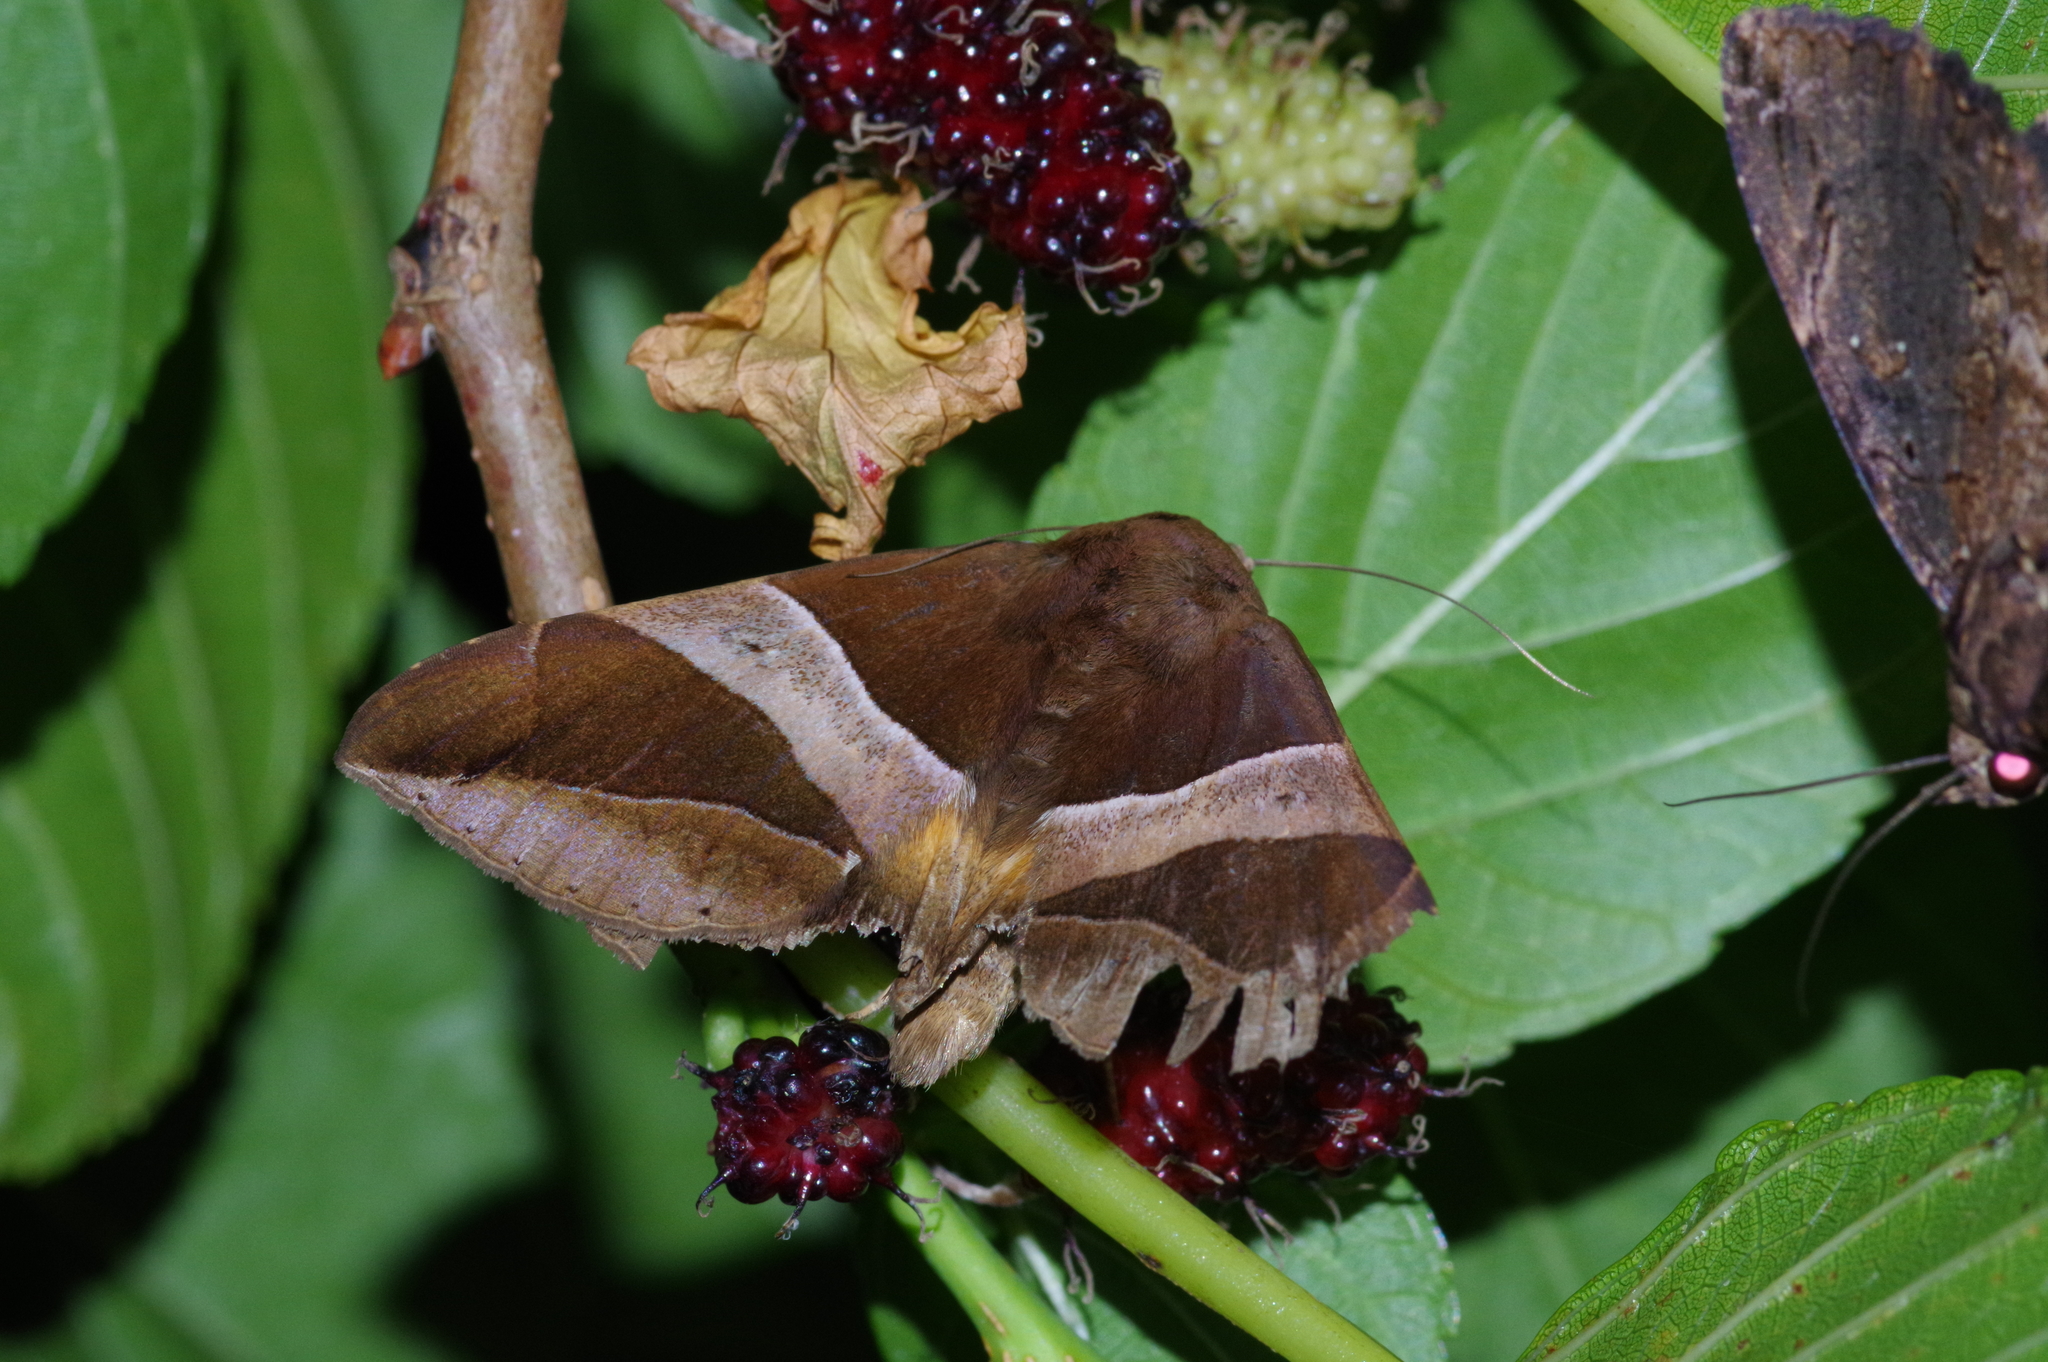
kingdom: Animalia
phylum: Arthropoda
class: Insecta
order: Lepidoptera
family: Erebidae
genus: Bastilla
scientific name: Bastilla fulvotaenia
